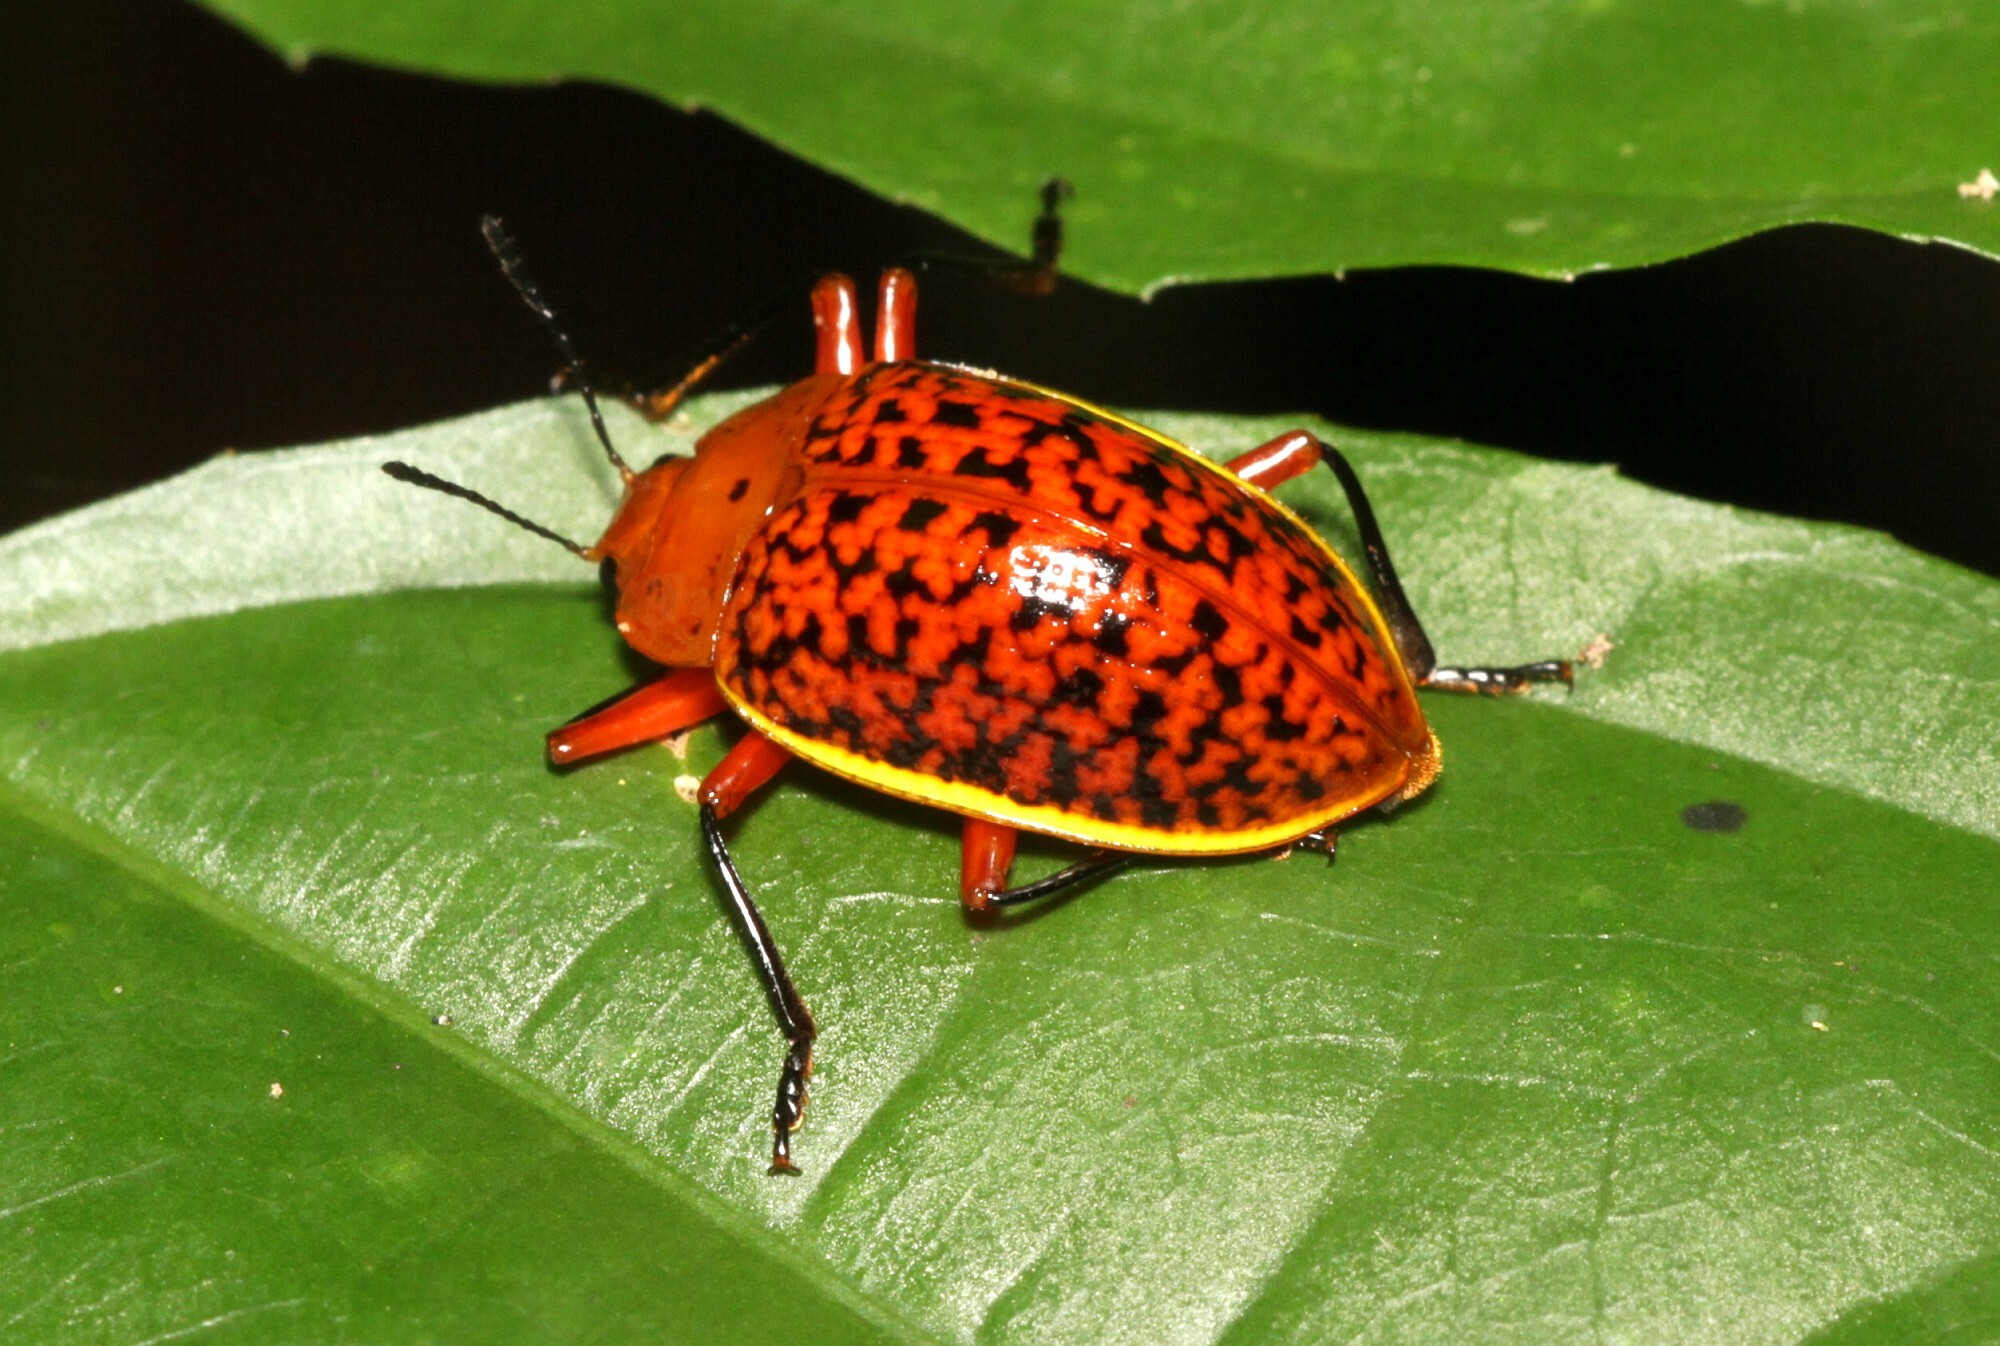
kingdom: Animalia
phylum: Arthropoda
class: Insecta
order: Coleoptera
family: Erotylidae
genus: Erotylina
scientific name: Erotylina
